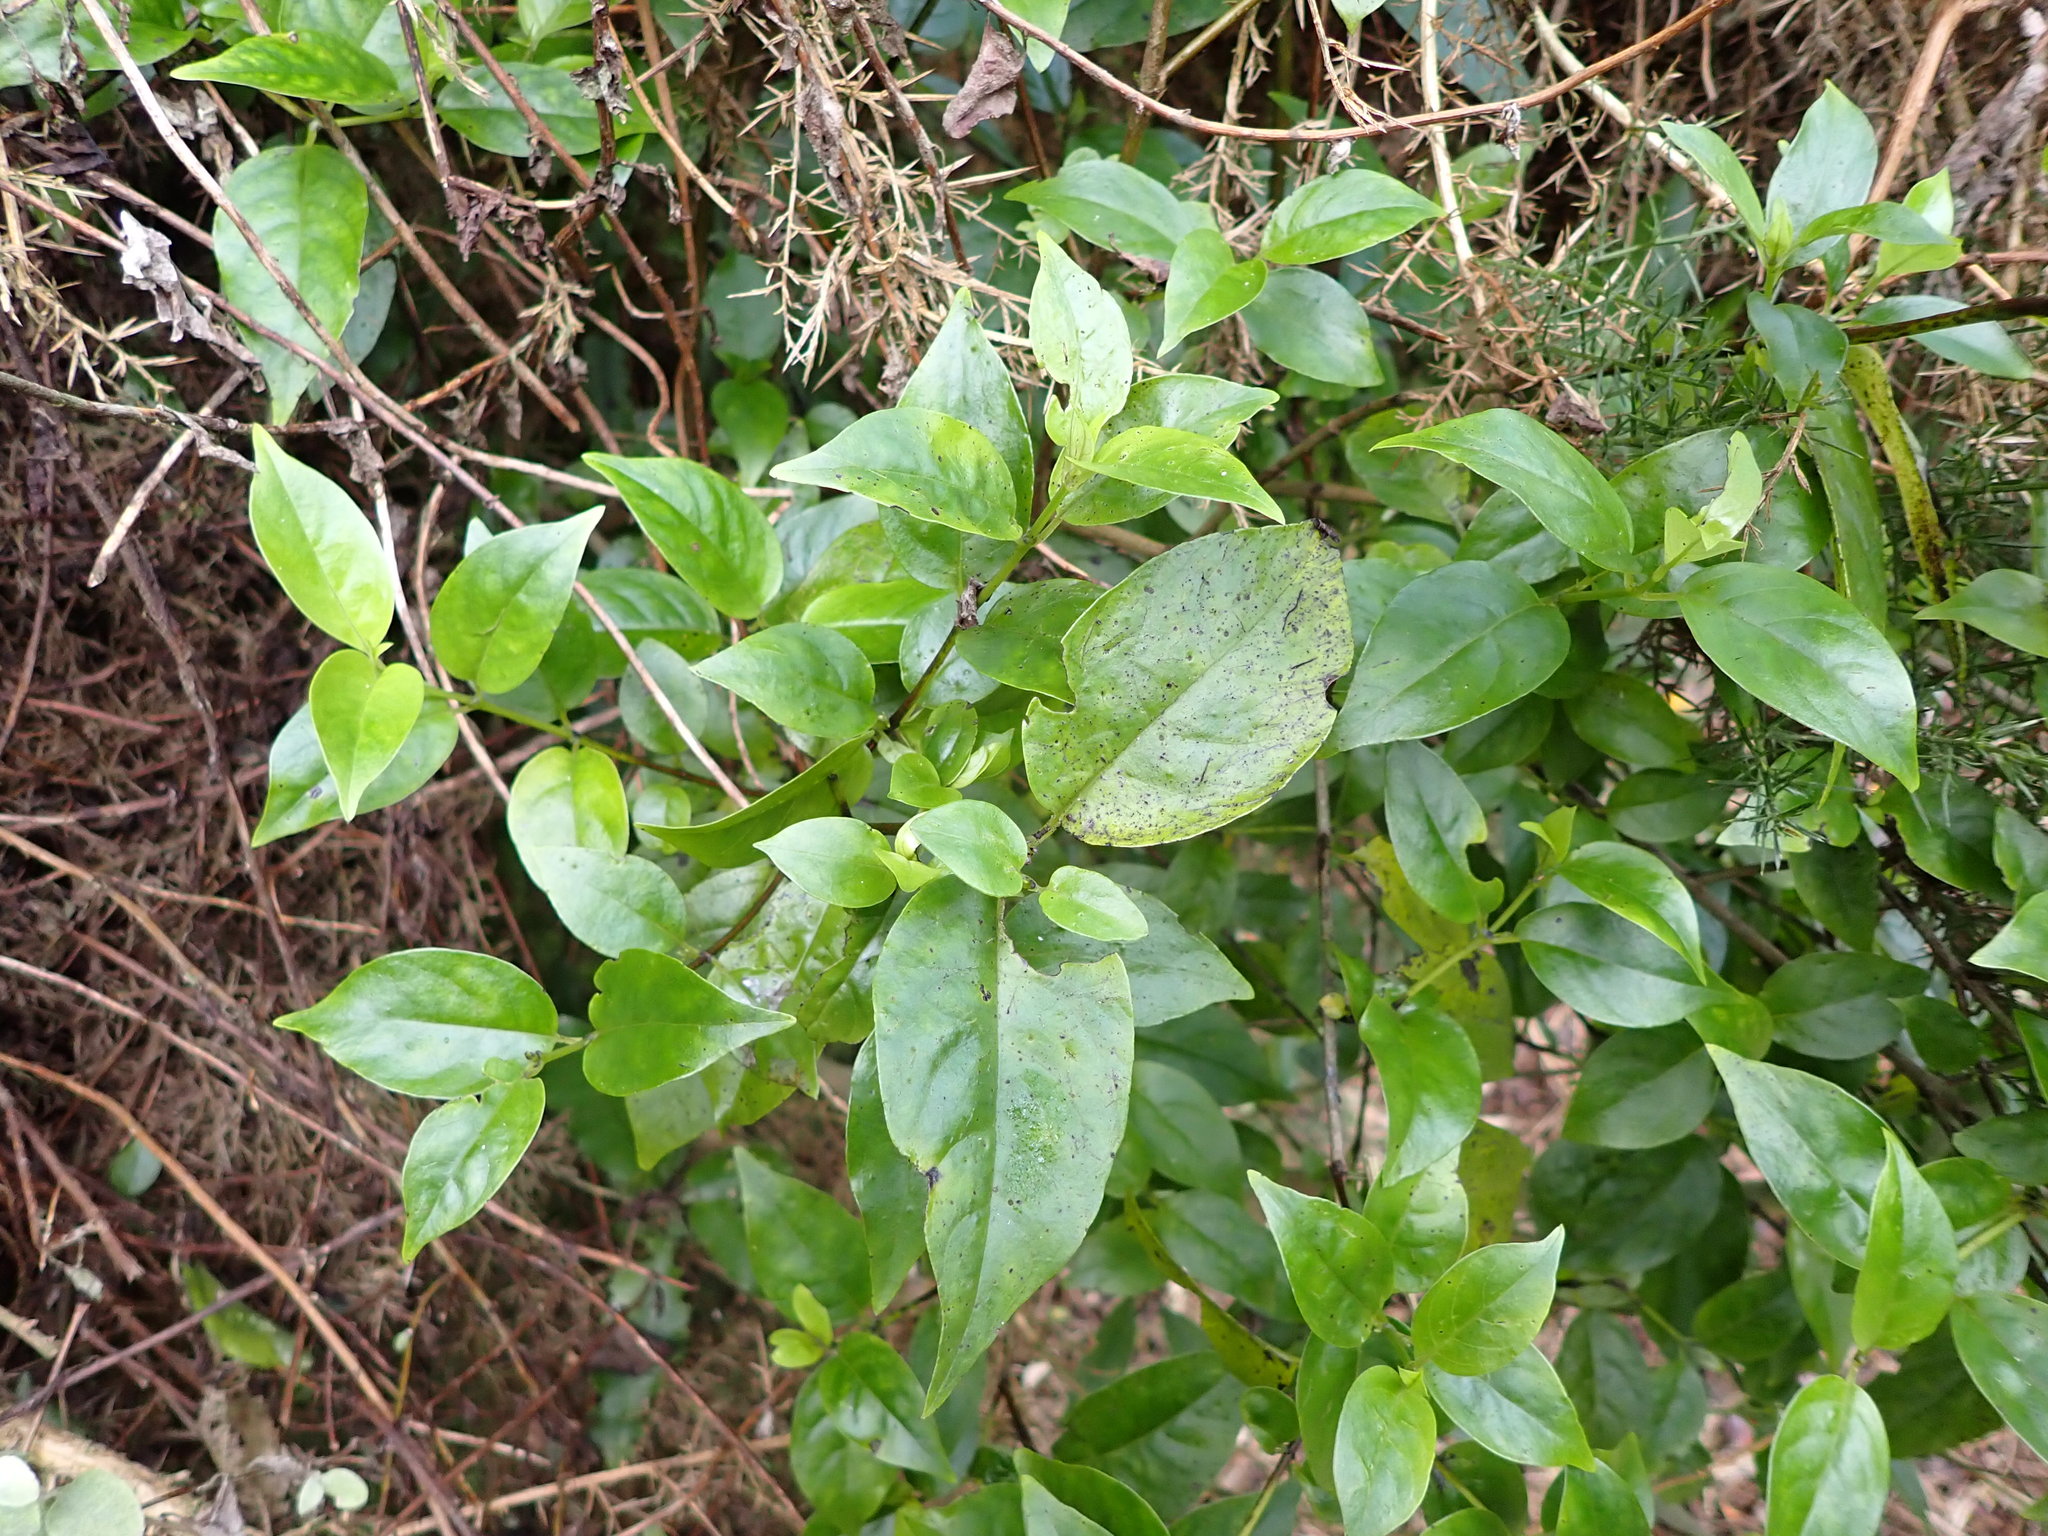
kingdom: Plantae
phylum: Tracheophyta
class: Magnoliopsida
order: Gentianales
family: Loganiaceae
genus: Geniostoma
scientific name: Geniostoma ligustrifolium
